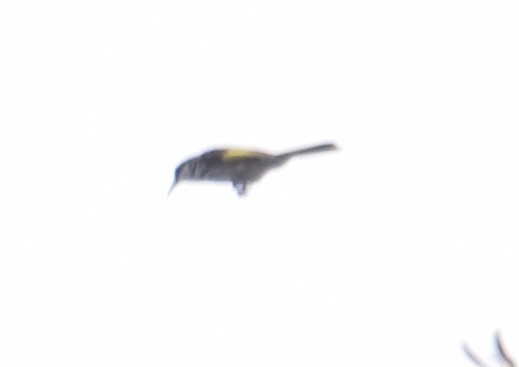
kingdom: Animalia
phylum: Chordata
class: Aves
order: Passeriformes
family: Meliphagidae
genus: Phylidonyris
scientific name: Phylidonyris niger
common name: White-cheeked honeyeater
